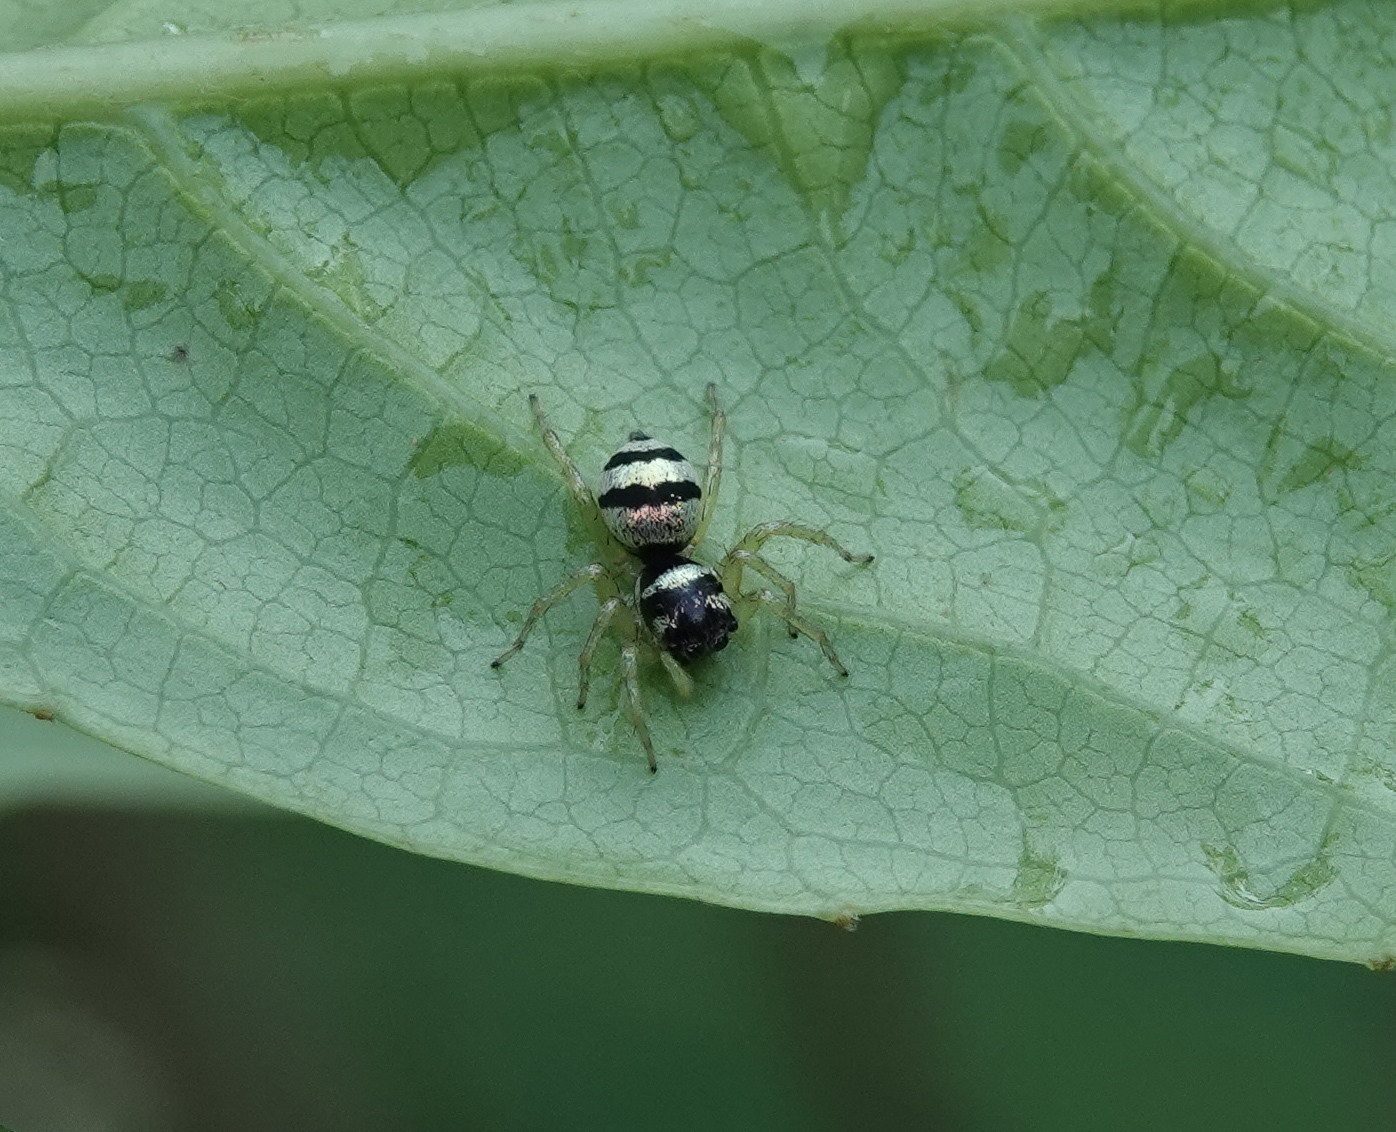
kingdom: Animalia
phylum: Arthropoda
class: Arachnida
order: Araneae
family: Salticidae
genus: Phintella
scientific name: Phintella vittata
